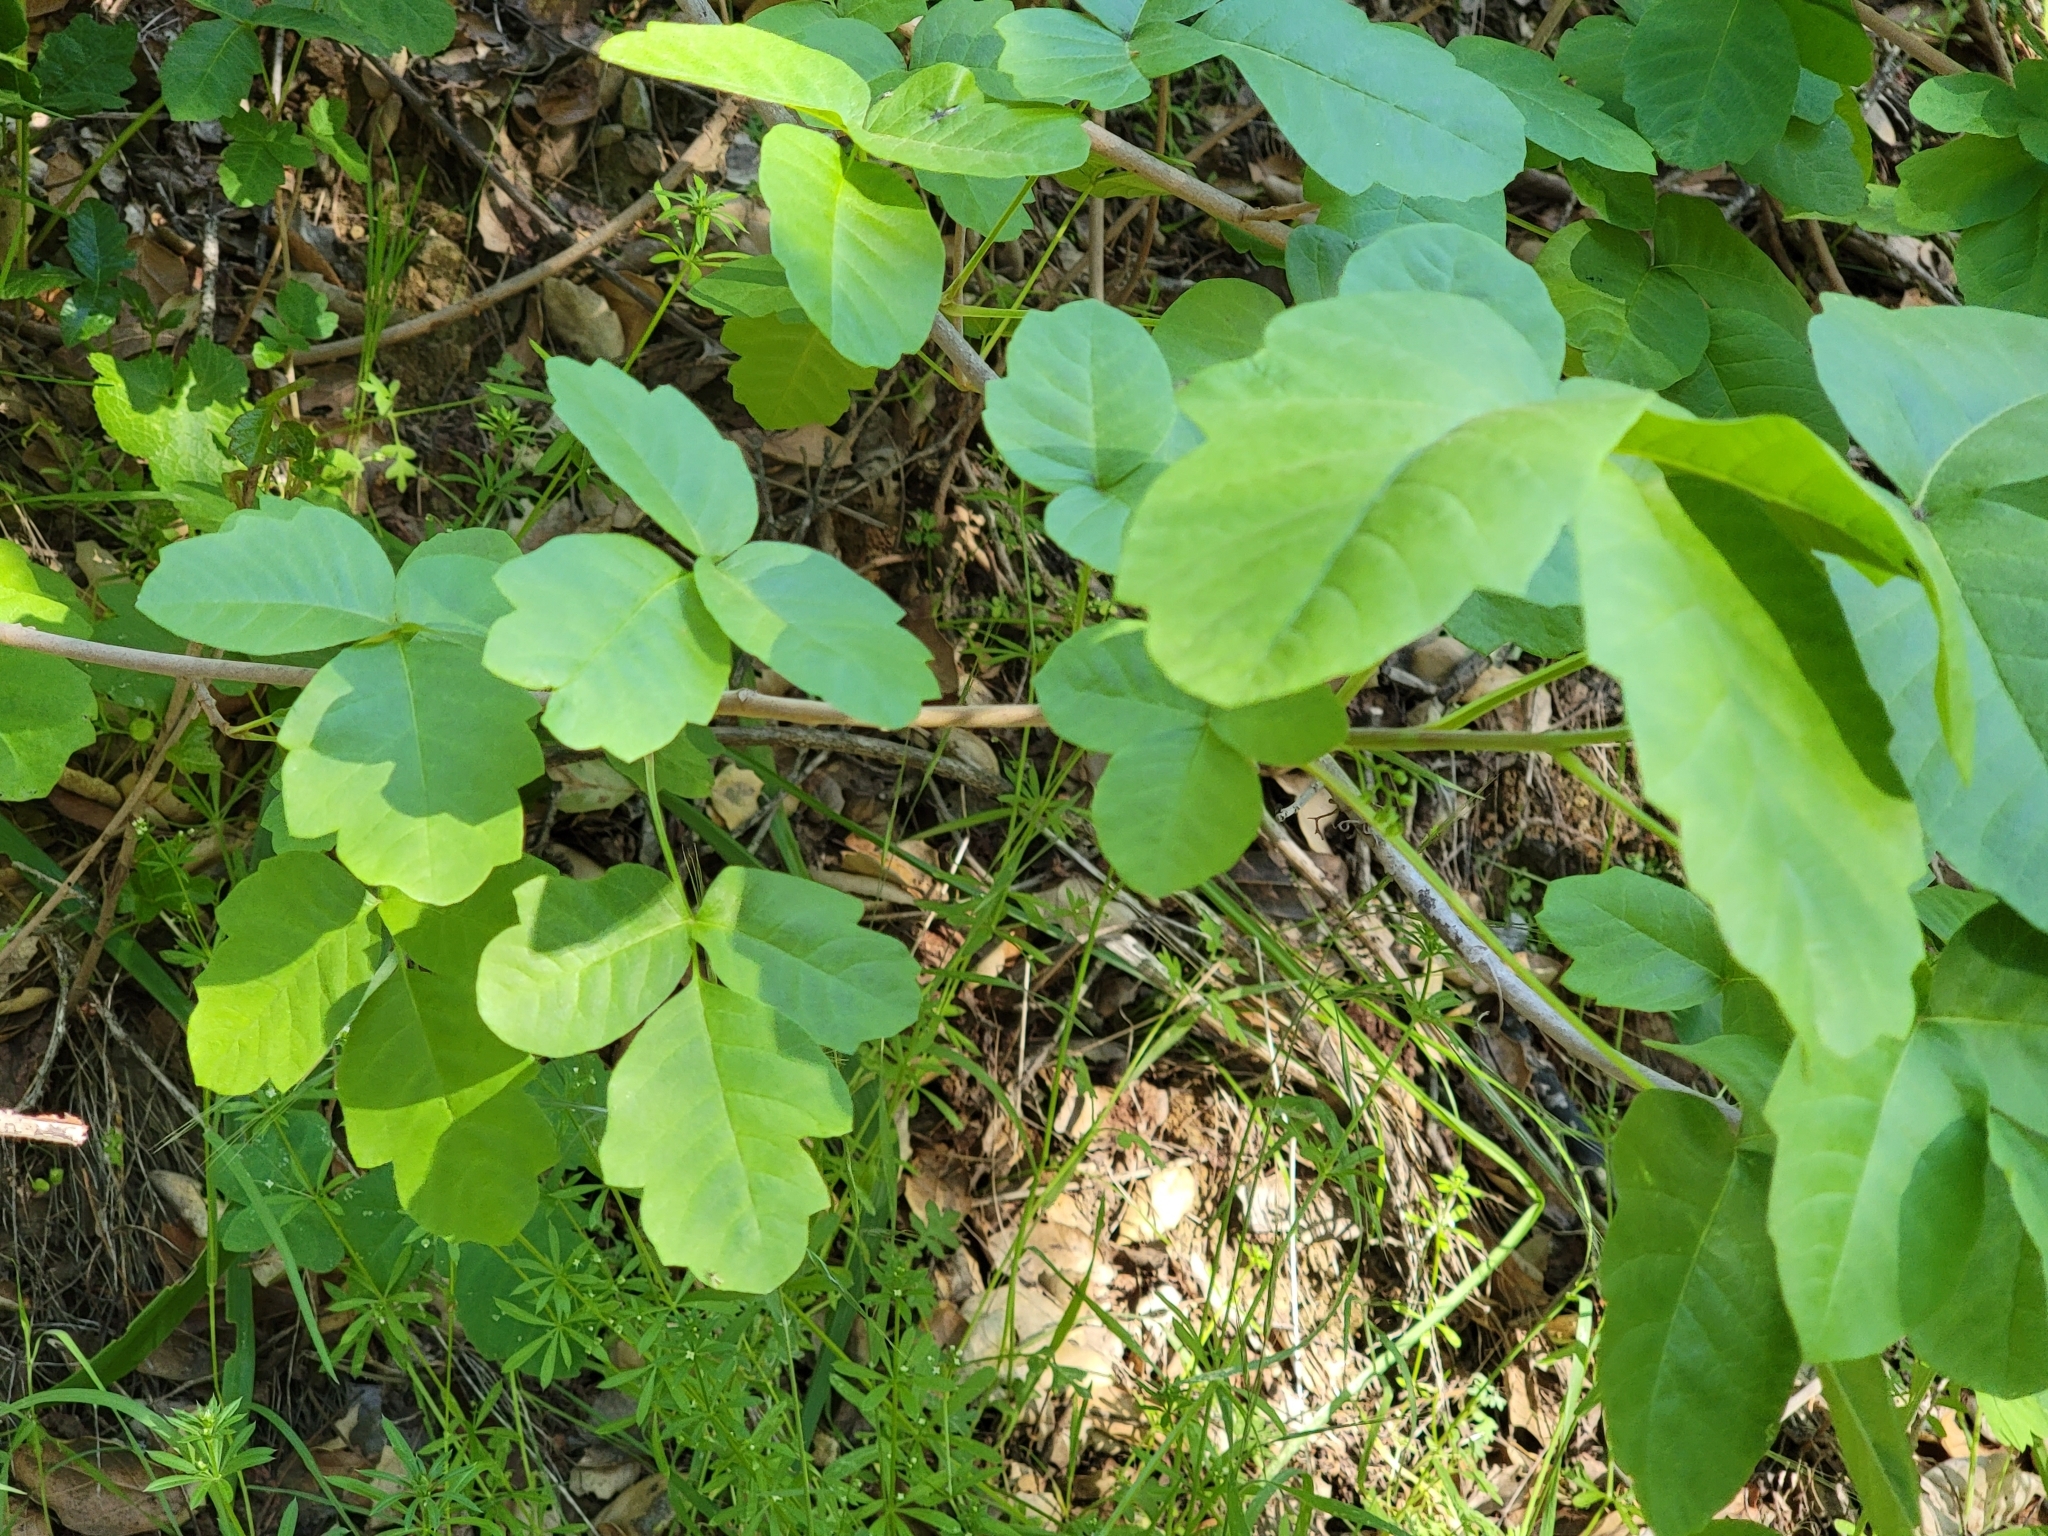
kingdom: Plantae
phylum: Tracheophyta
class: Magnoliopsida
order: Sapindales
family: Anacardiaceae
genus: Toxicodendron
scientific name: Toxicodendron diversilobum
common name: Pacific poison-oak
